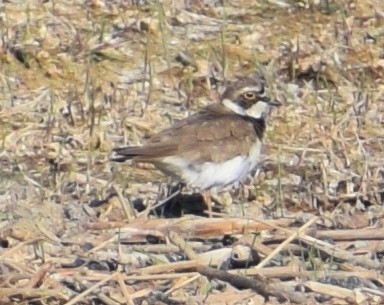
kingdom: Animalia
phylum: Chordata
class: Aves
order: Charadriiformes
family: Charadriidae
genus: Charadrius
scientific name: Charadrius dubius
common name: Little ringed plover
